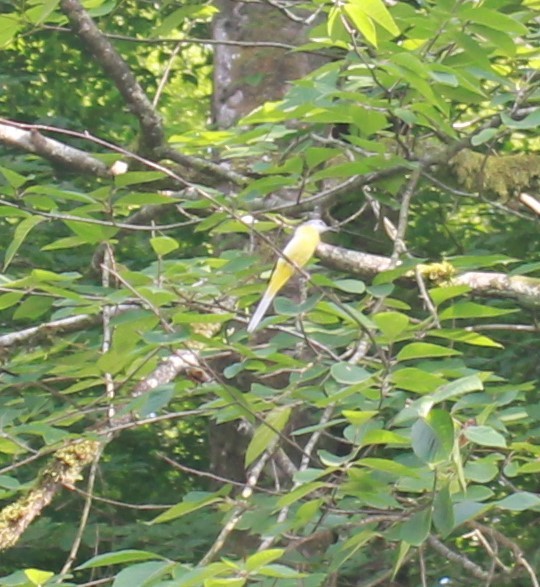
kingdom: Animalia
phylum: Chordata
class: Aves
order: Passeriformes
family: Motacillidae
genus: Motacilla
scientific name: Motacilla cinerea
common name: Grey wagtail
